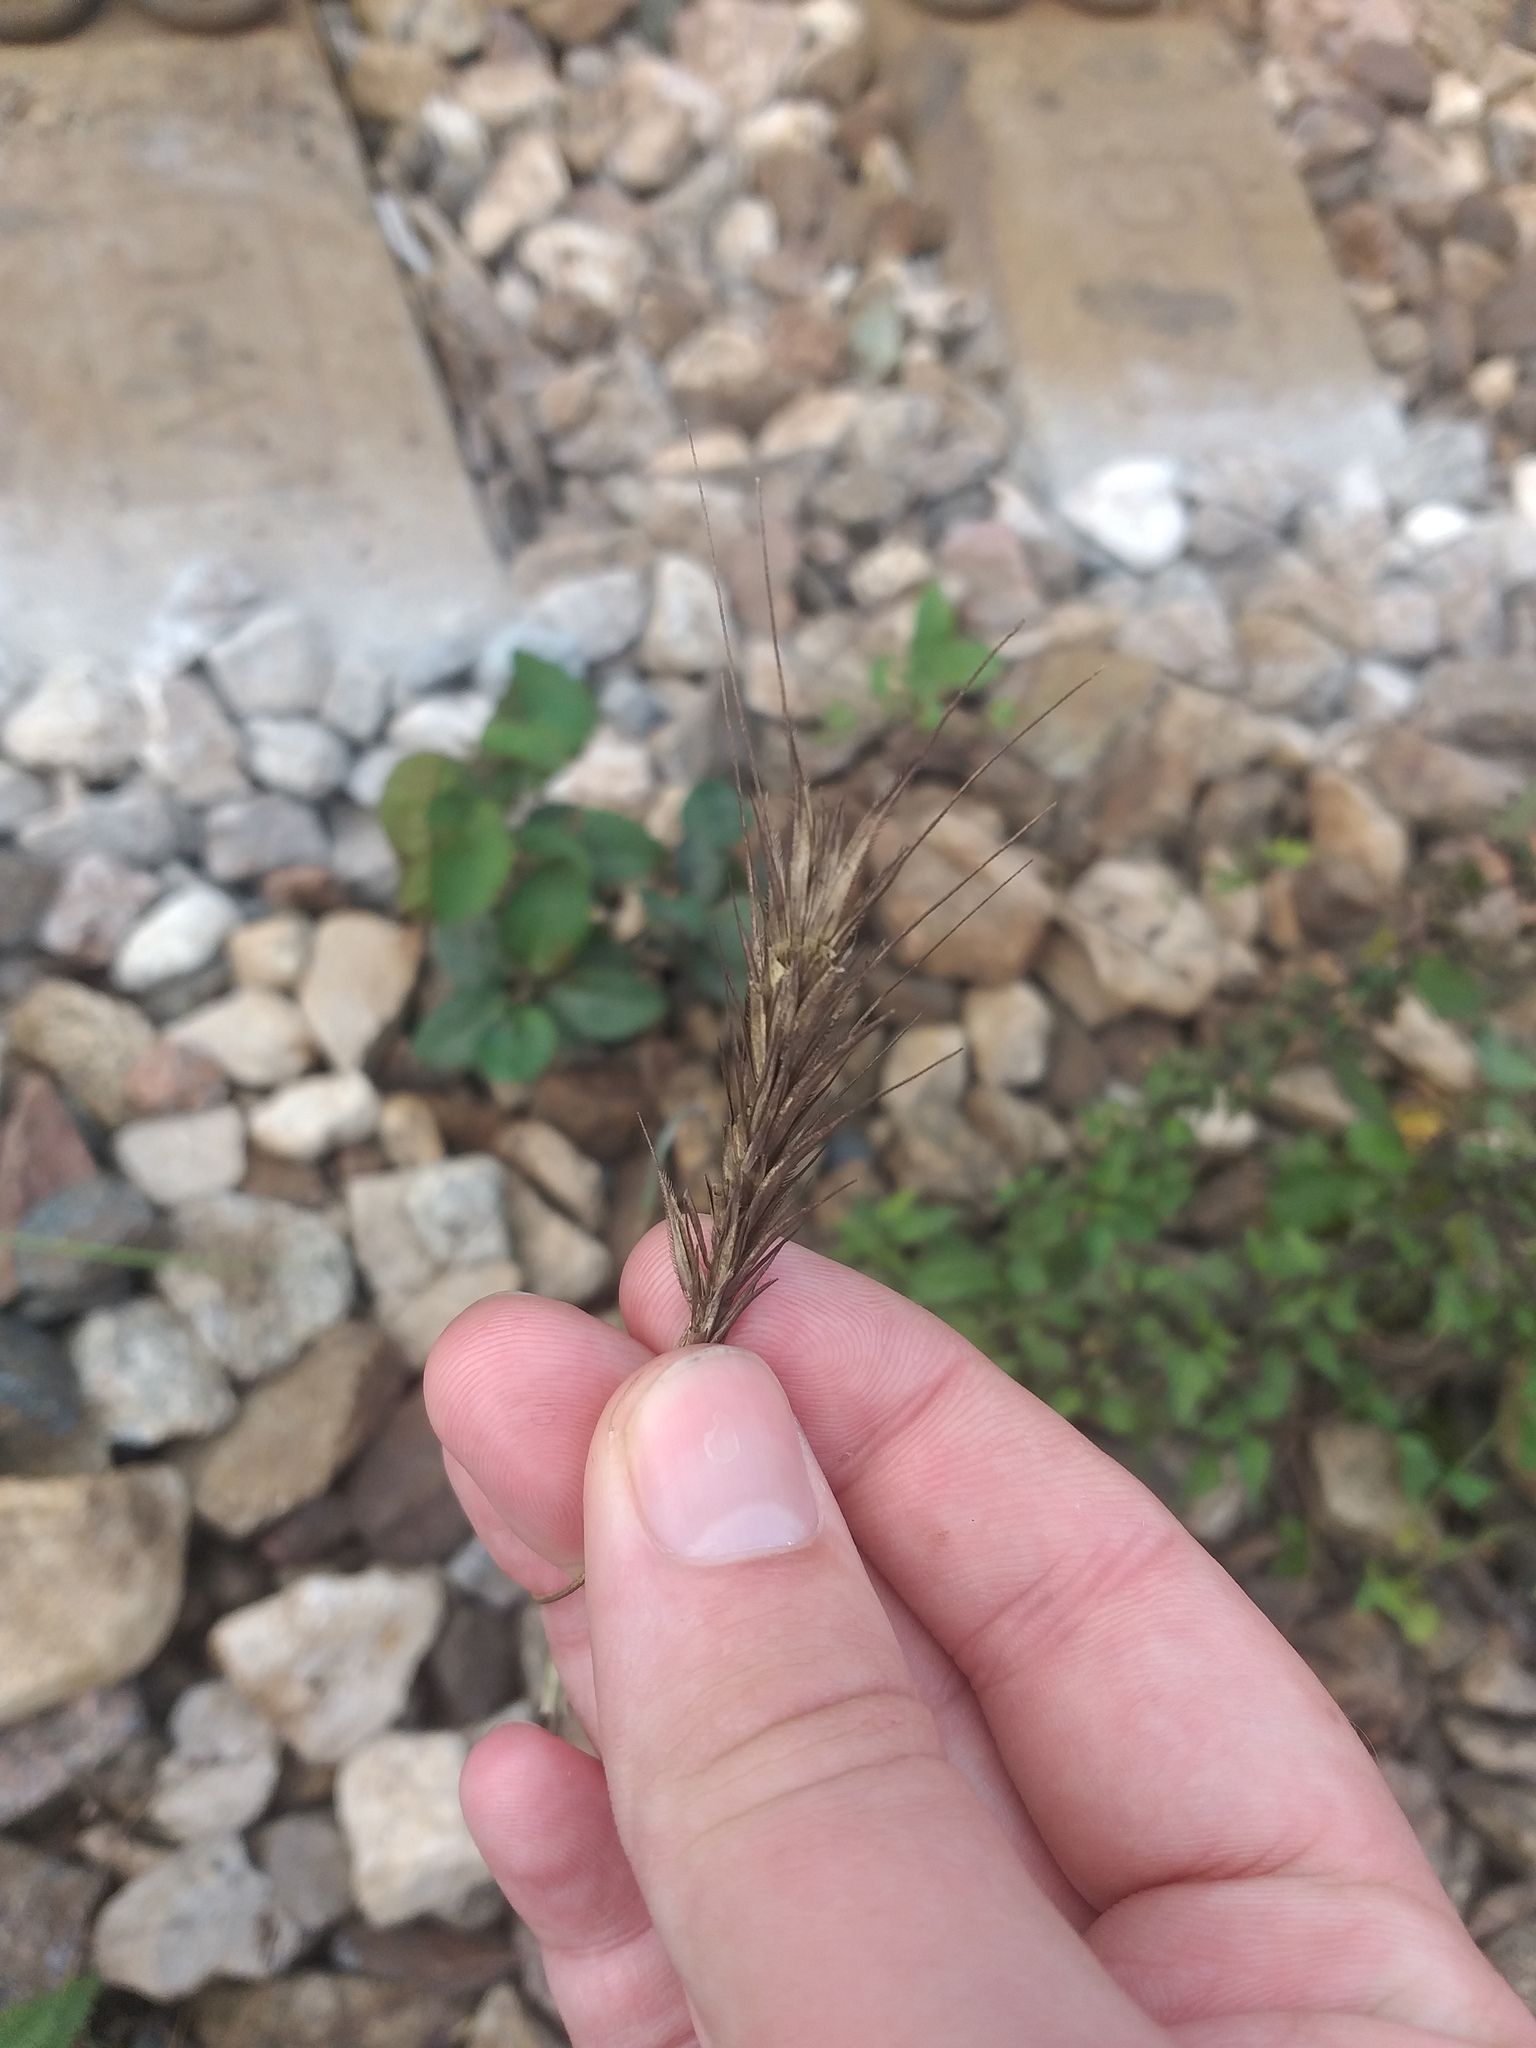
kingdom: Plantae
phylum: Tracheophyta
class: Liliopsida
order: Poales
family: Poaceae
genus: Secale
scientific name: Secale cereale
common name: Rye
